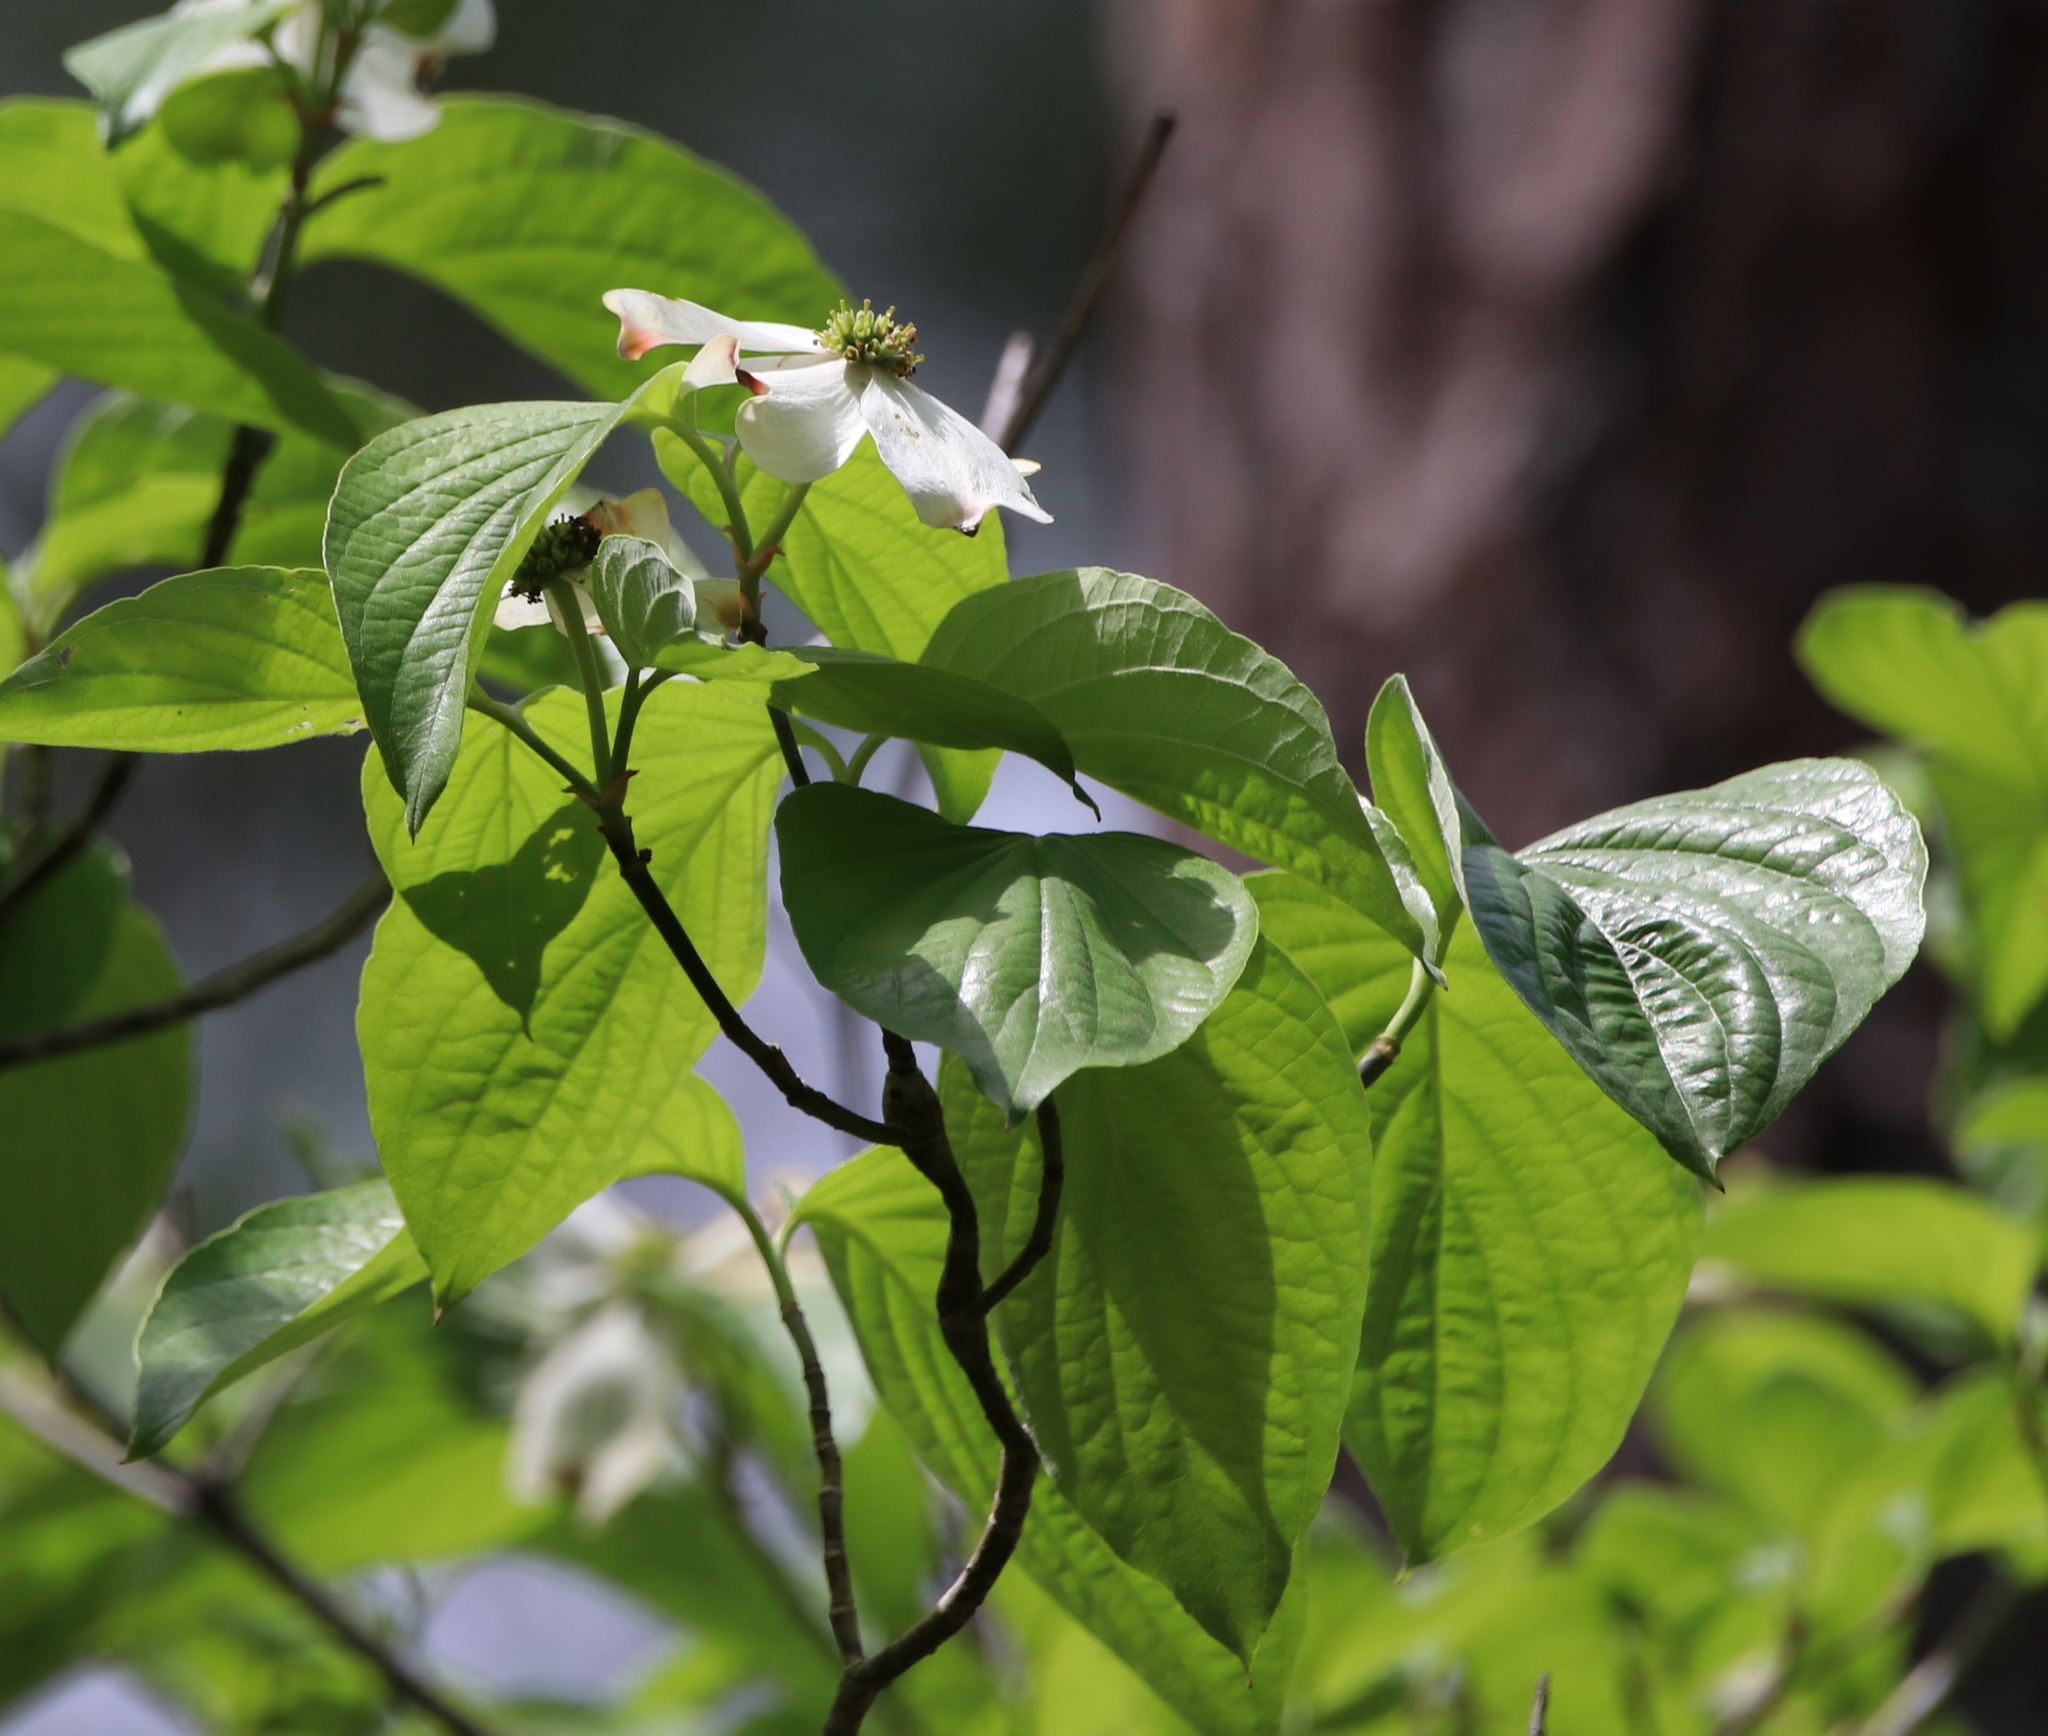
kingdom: Plantae
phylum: Tracheophyta
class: Magnoliopsida
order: Cornales
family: Cornaceae
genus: Cornus
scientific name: Cornus florida
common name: Flowering dogwood
